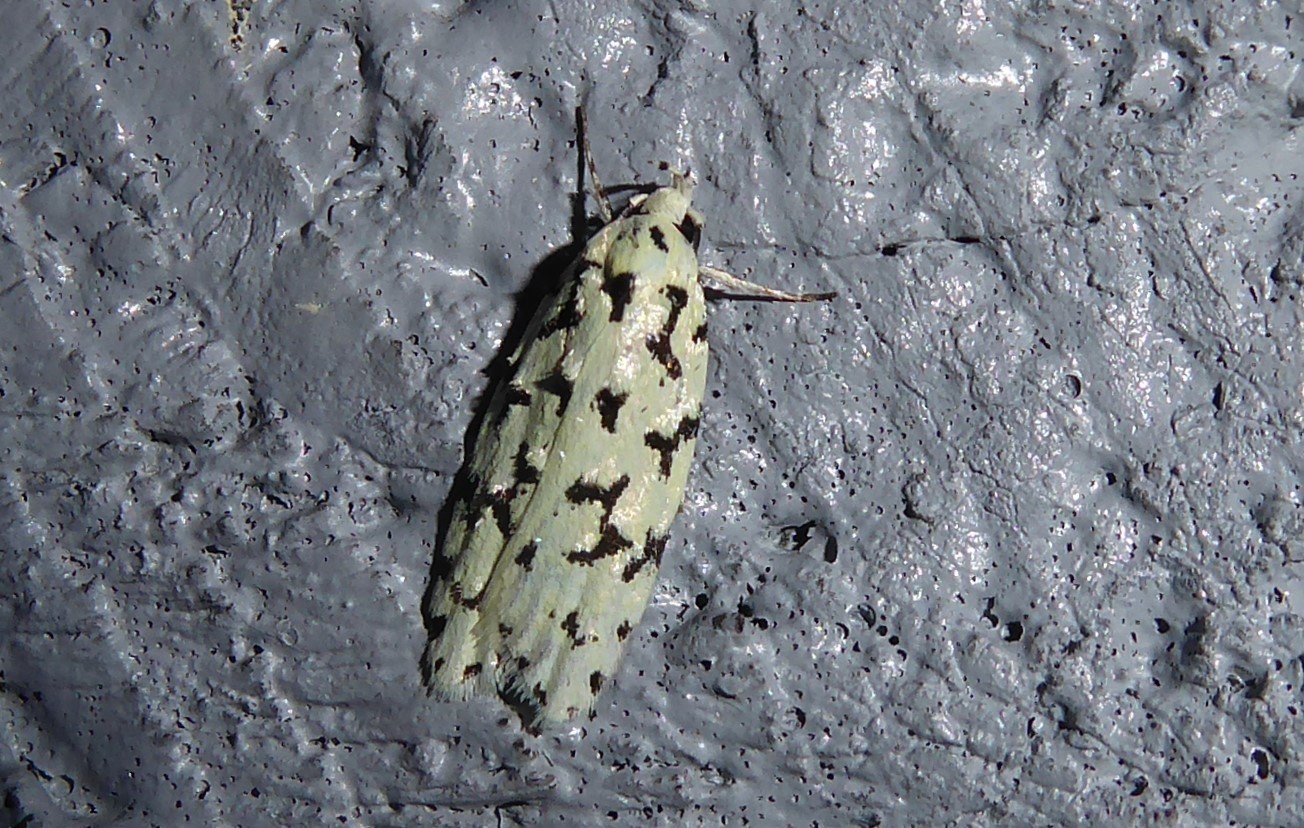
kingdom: Animalia
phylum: Arthropoda
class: Insecta
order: Lepidoptera
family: Oecophoridae
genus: Izatha
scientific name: Izatha huttoni
